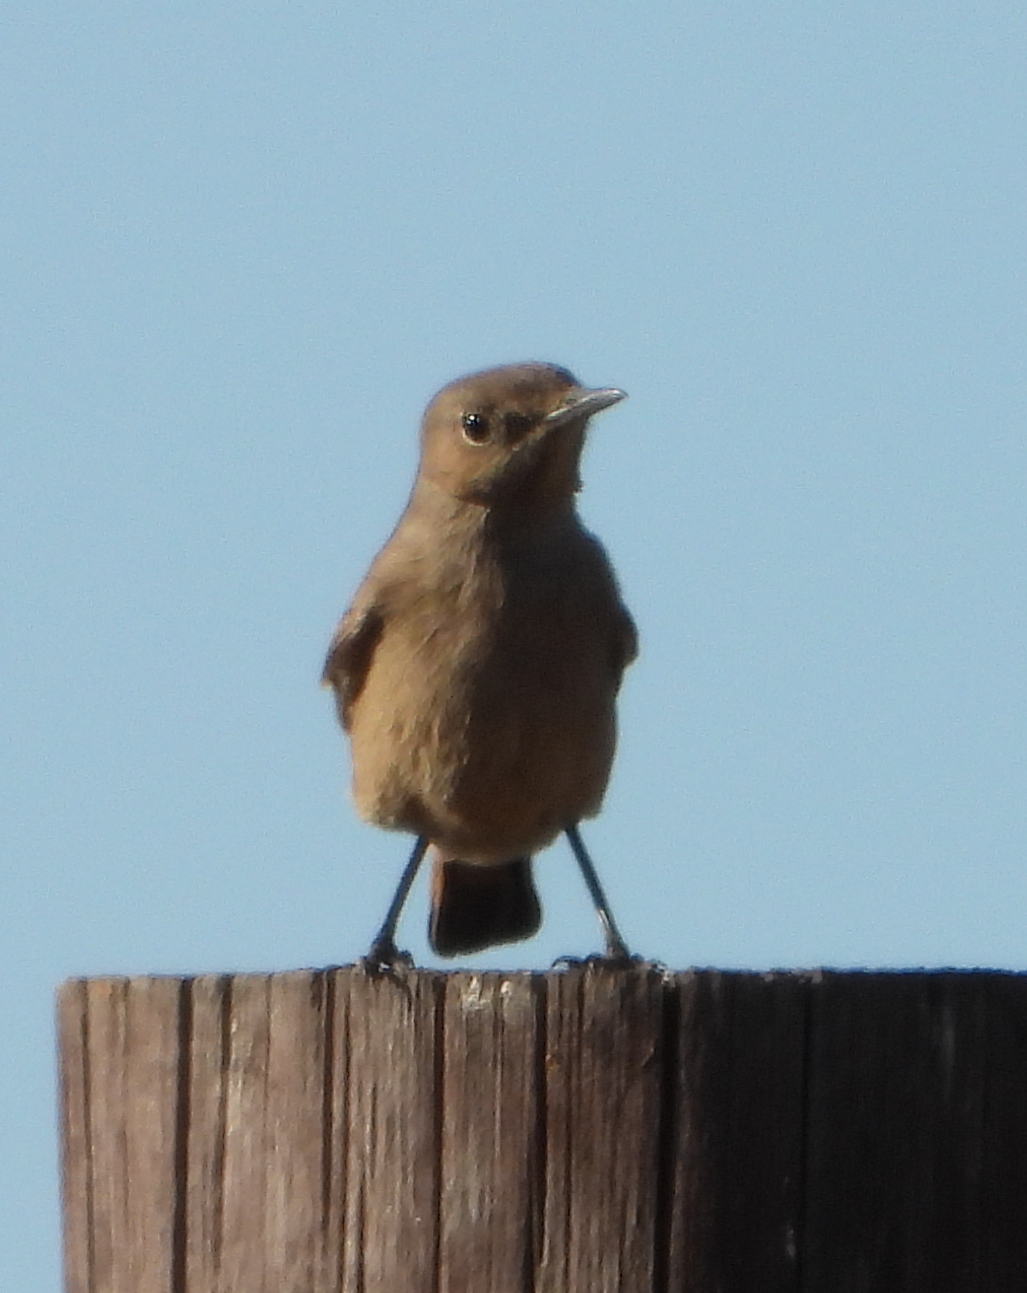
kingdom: Animalia
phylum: Chordata
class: Aves
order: Passeriformes
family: Muscicapidae
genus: Oenanthe
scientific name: Oenanthe familiaris
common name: Familiar chat
